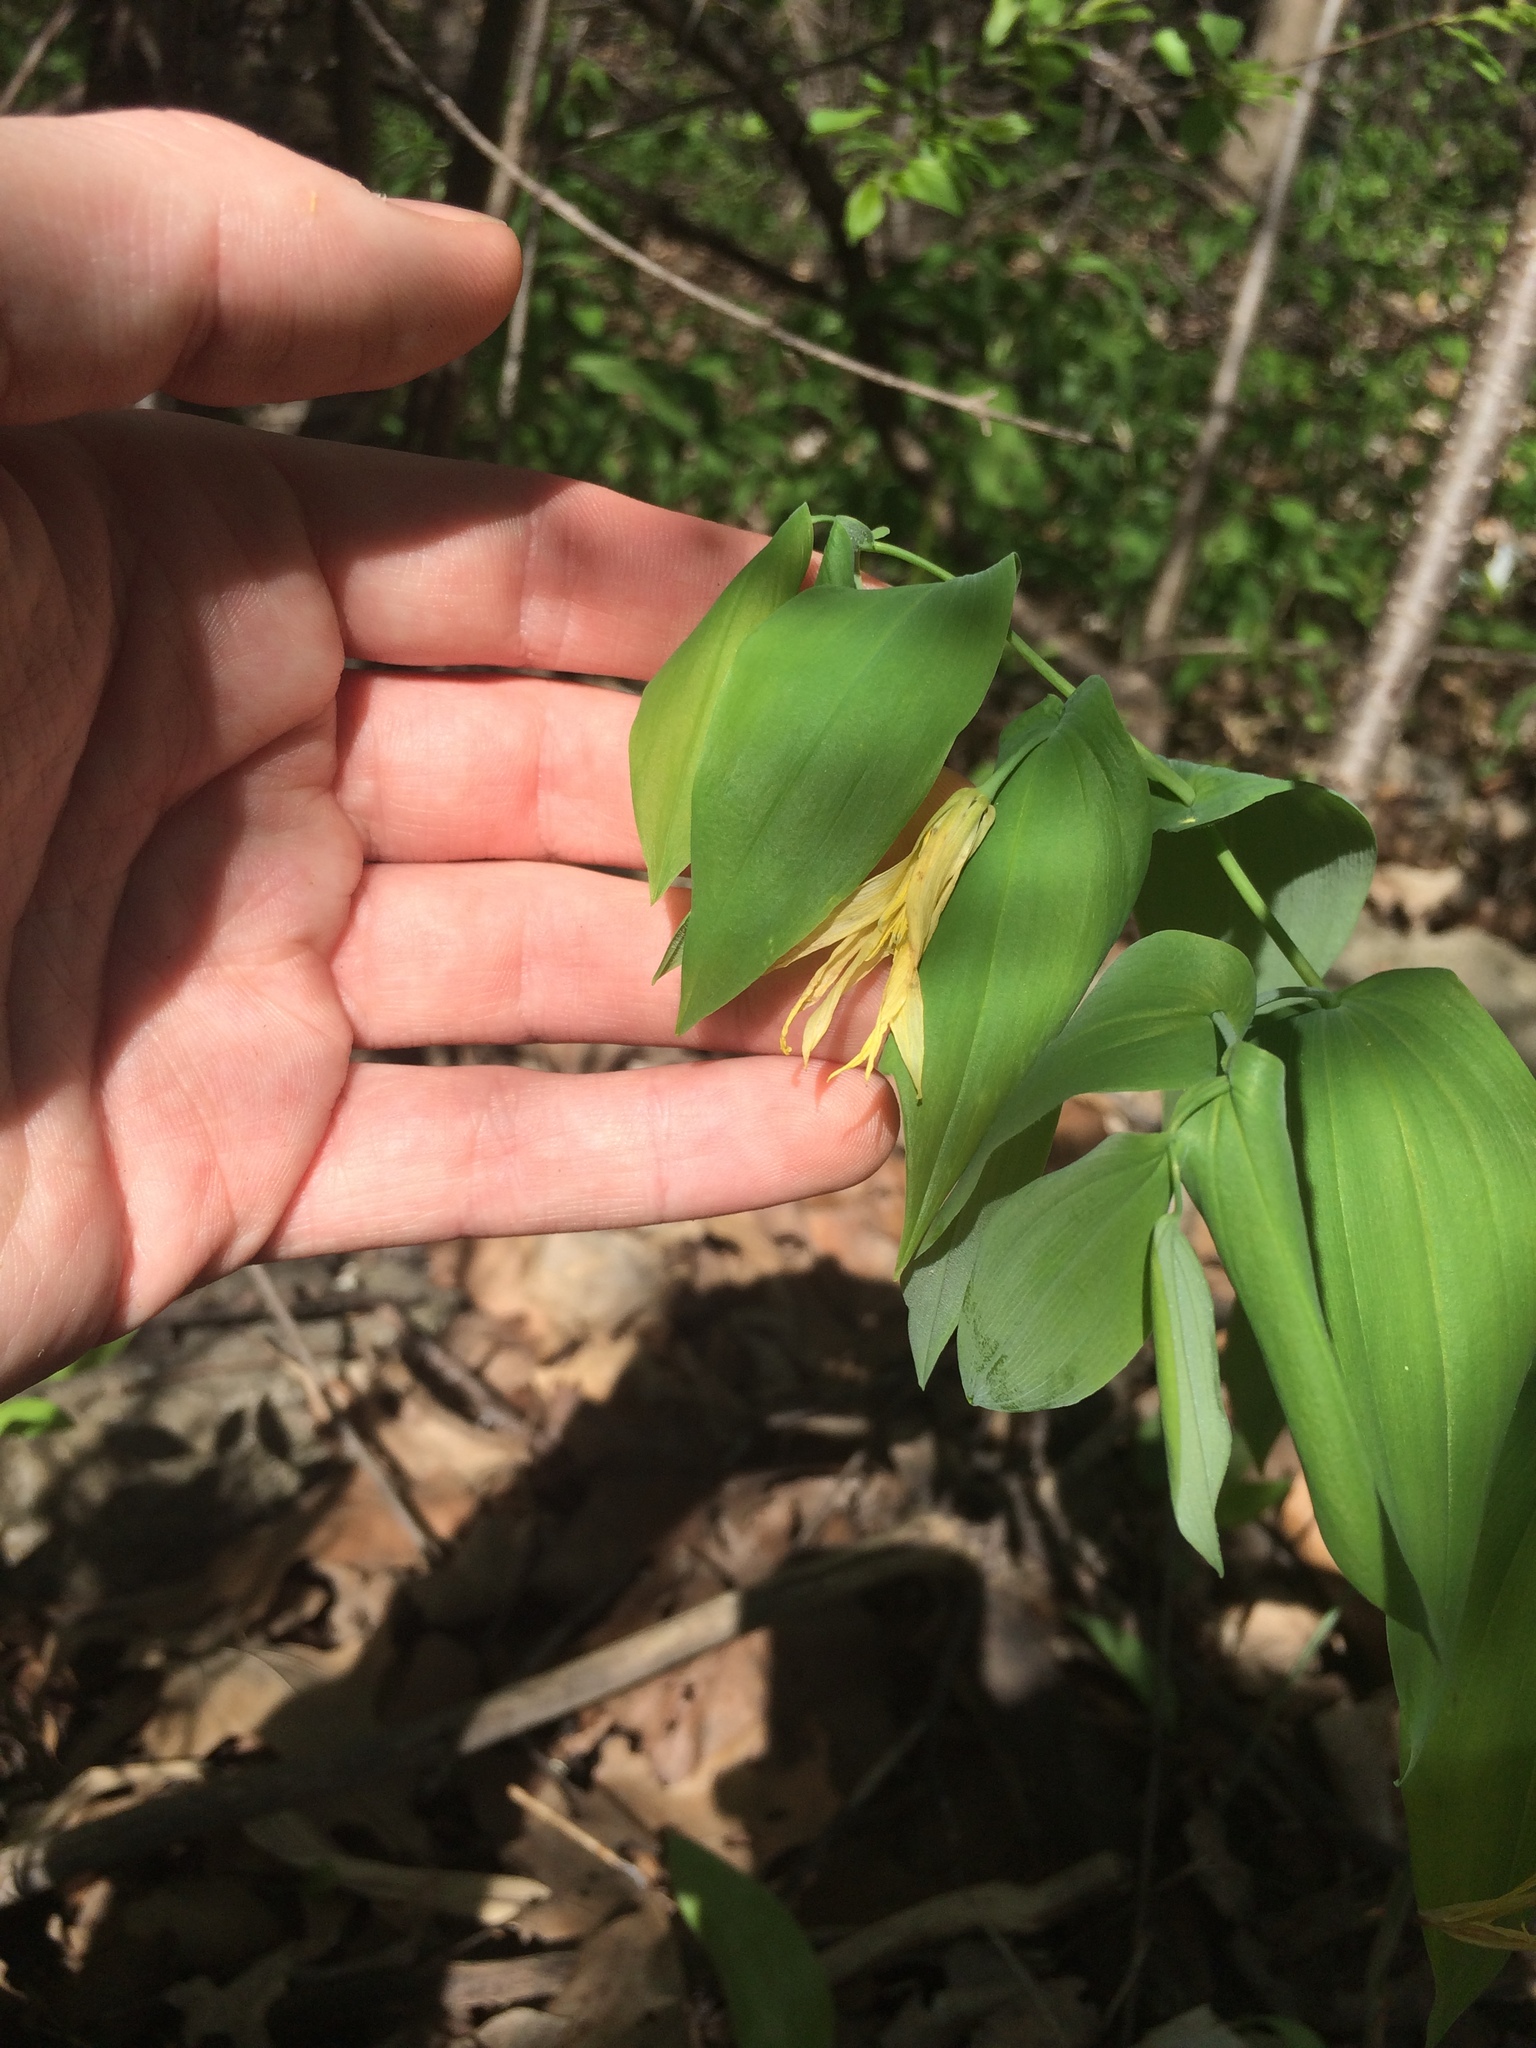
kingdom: Plantae
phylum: Tracheophyta
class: Liliopsida
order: Liliales
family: Colchicaceae
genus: Uvularia
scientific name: Uvularia grandiflora
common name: Bellwort
